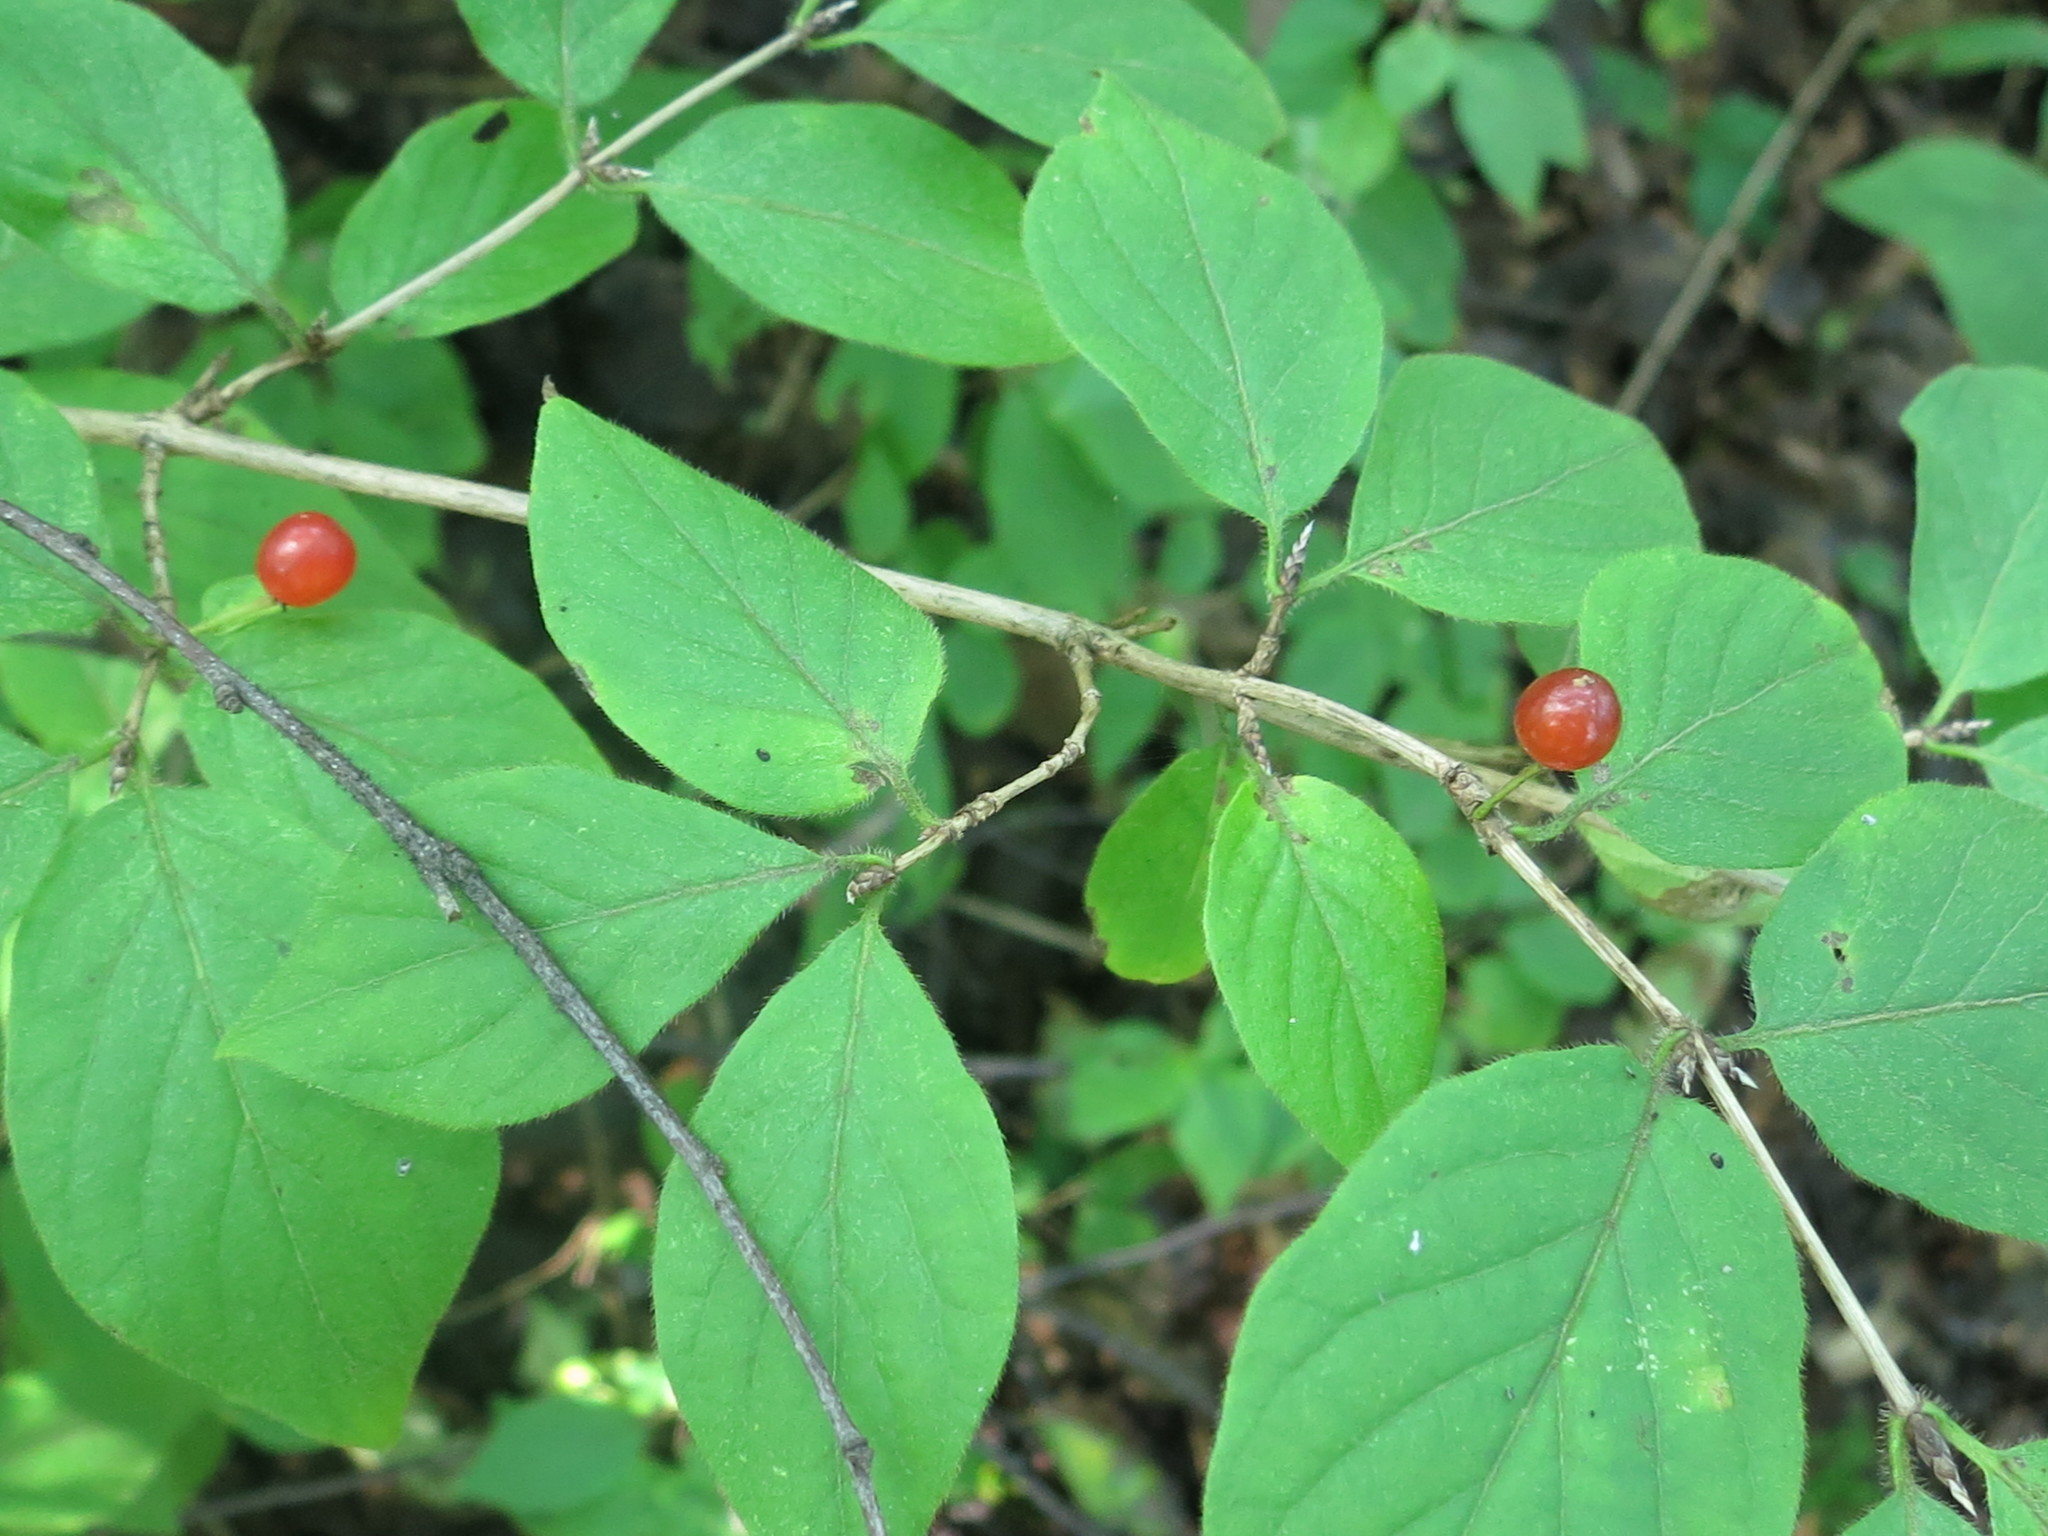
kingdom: Plantae
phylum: Tracheophyta
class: Magnoliopsida
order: Dipsacales
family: Caprifoliaceae
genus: Lonicera
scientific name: Lonicera chrysantha
